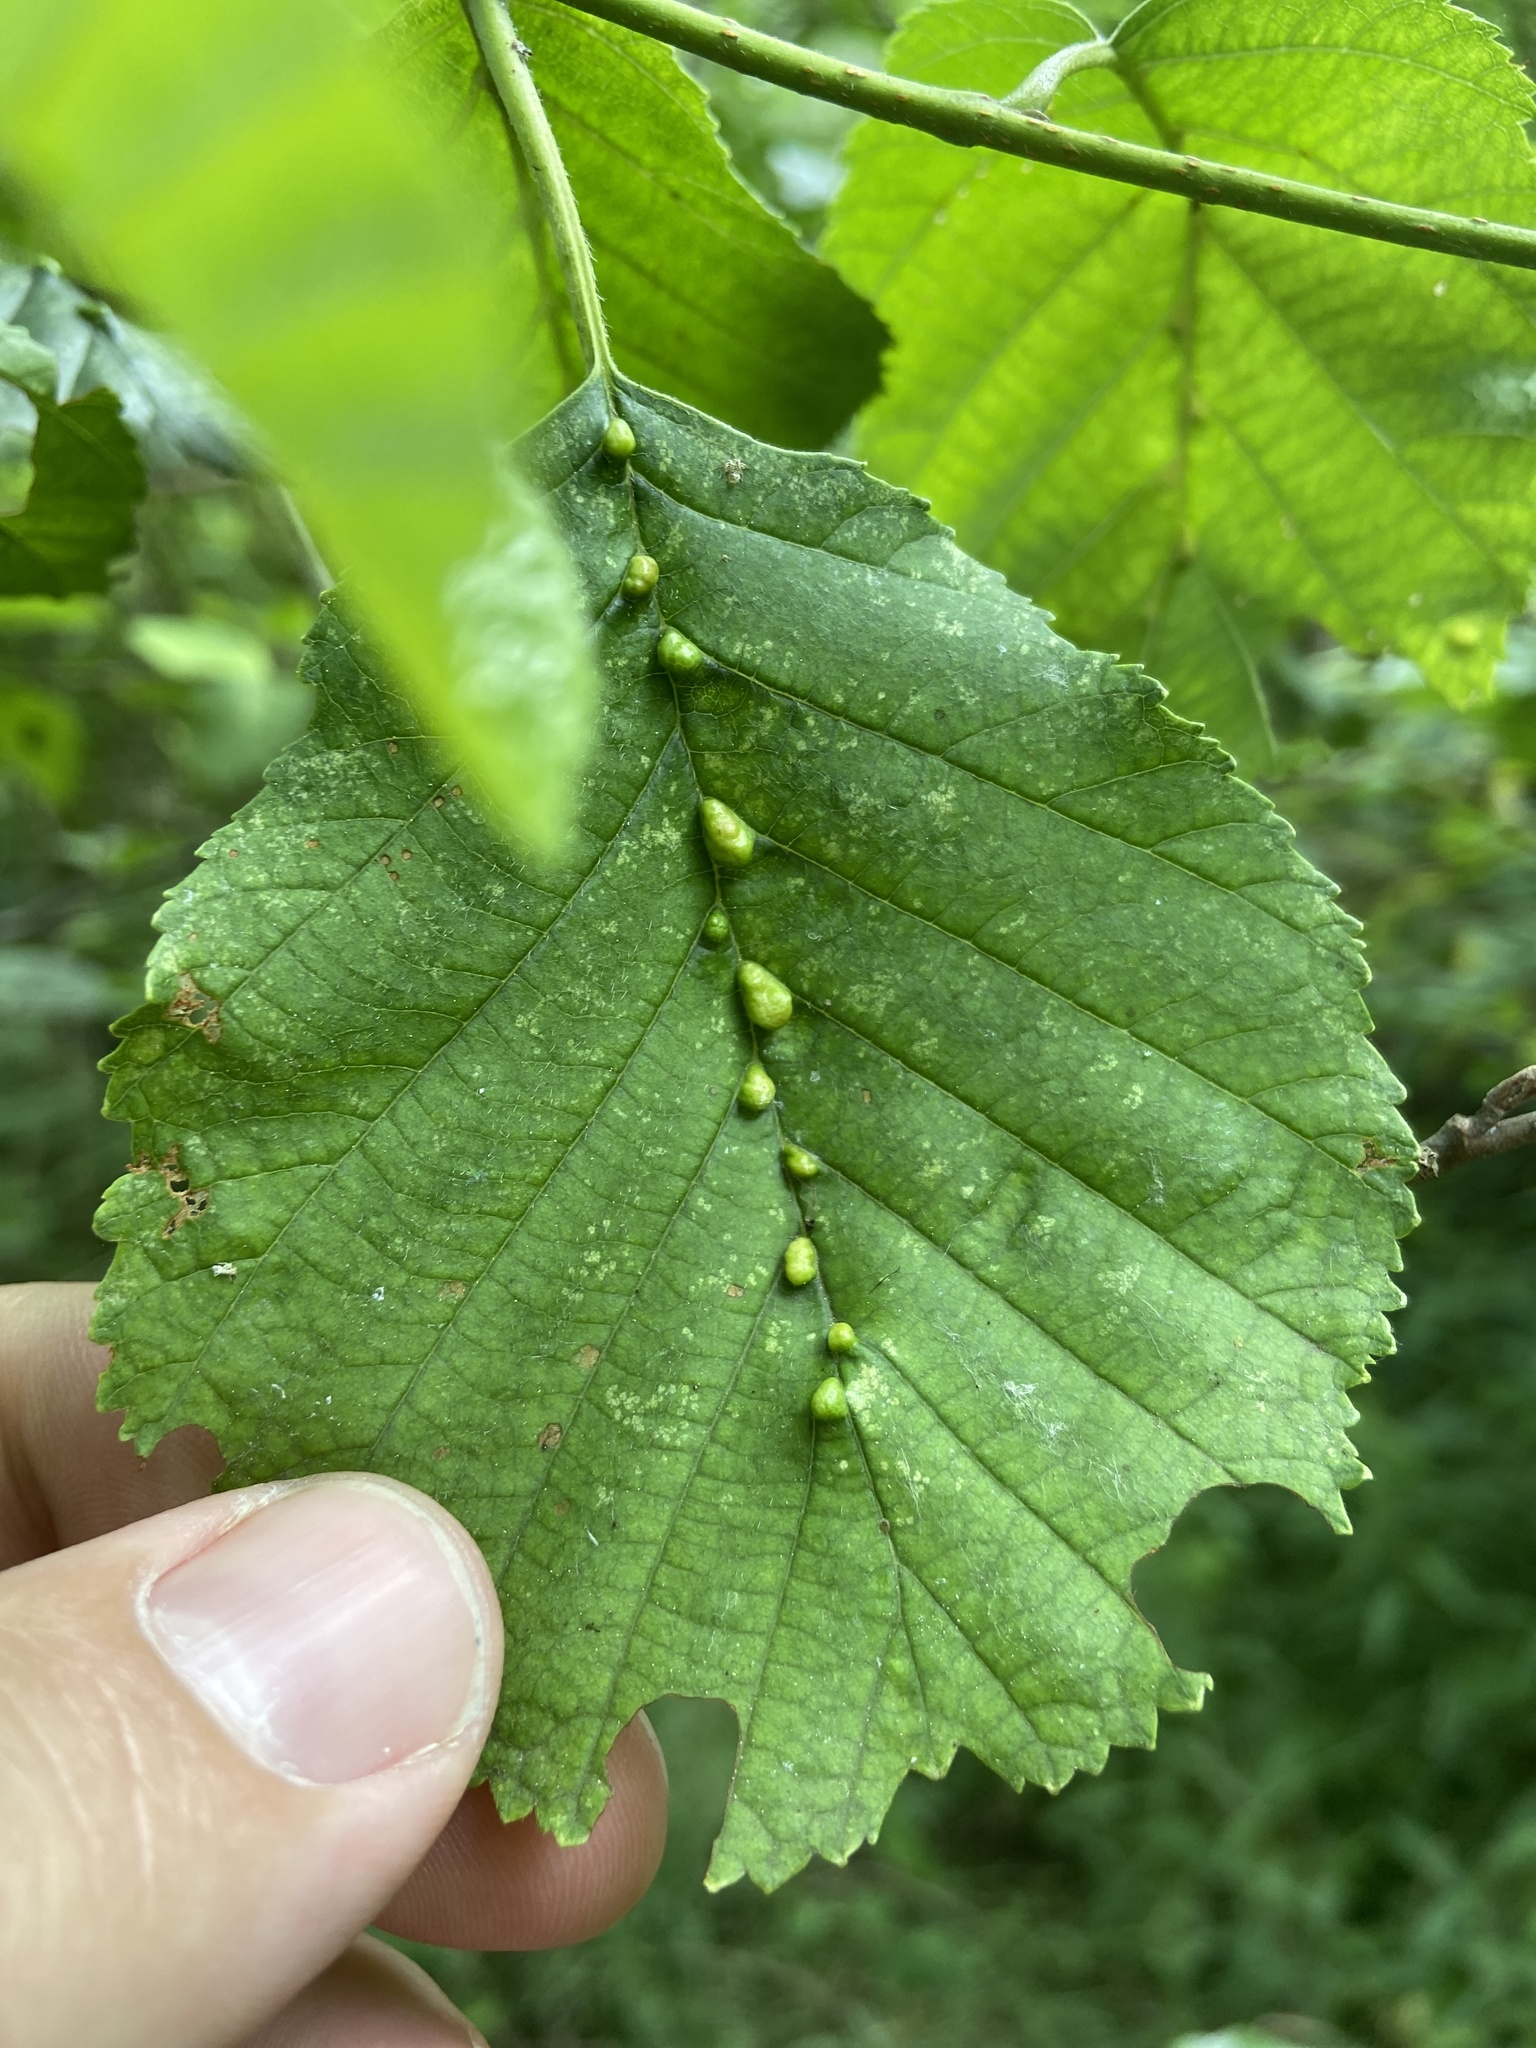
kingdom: Animalia
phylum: Arthropoda
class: Arachnida
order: Trombidiformes
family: Eriophyidae
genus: Eriophyes
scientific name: Eriophyes inangulis
